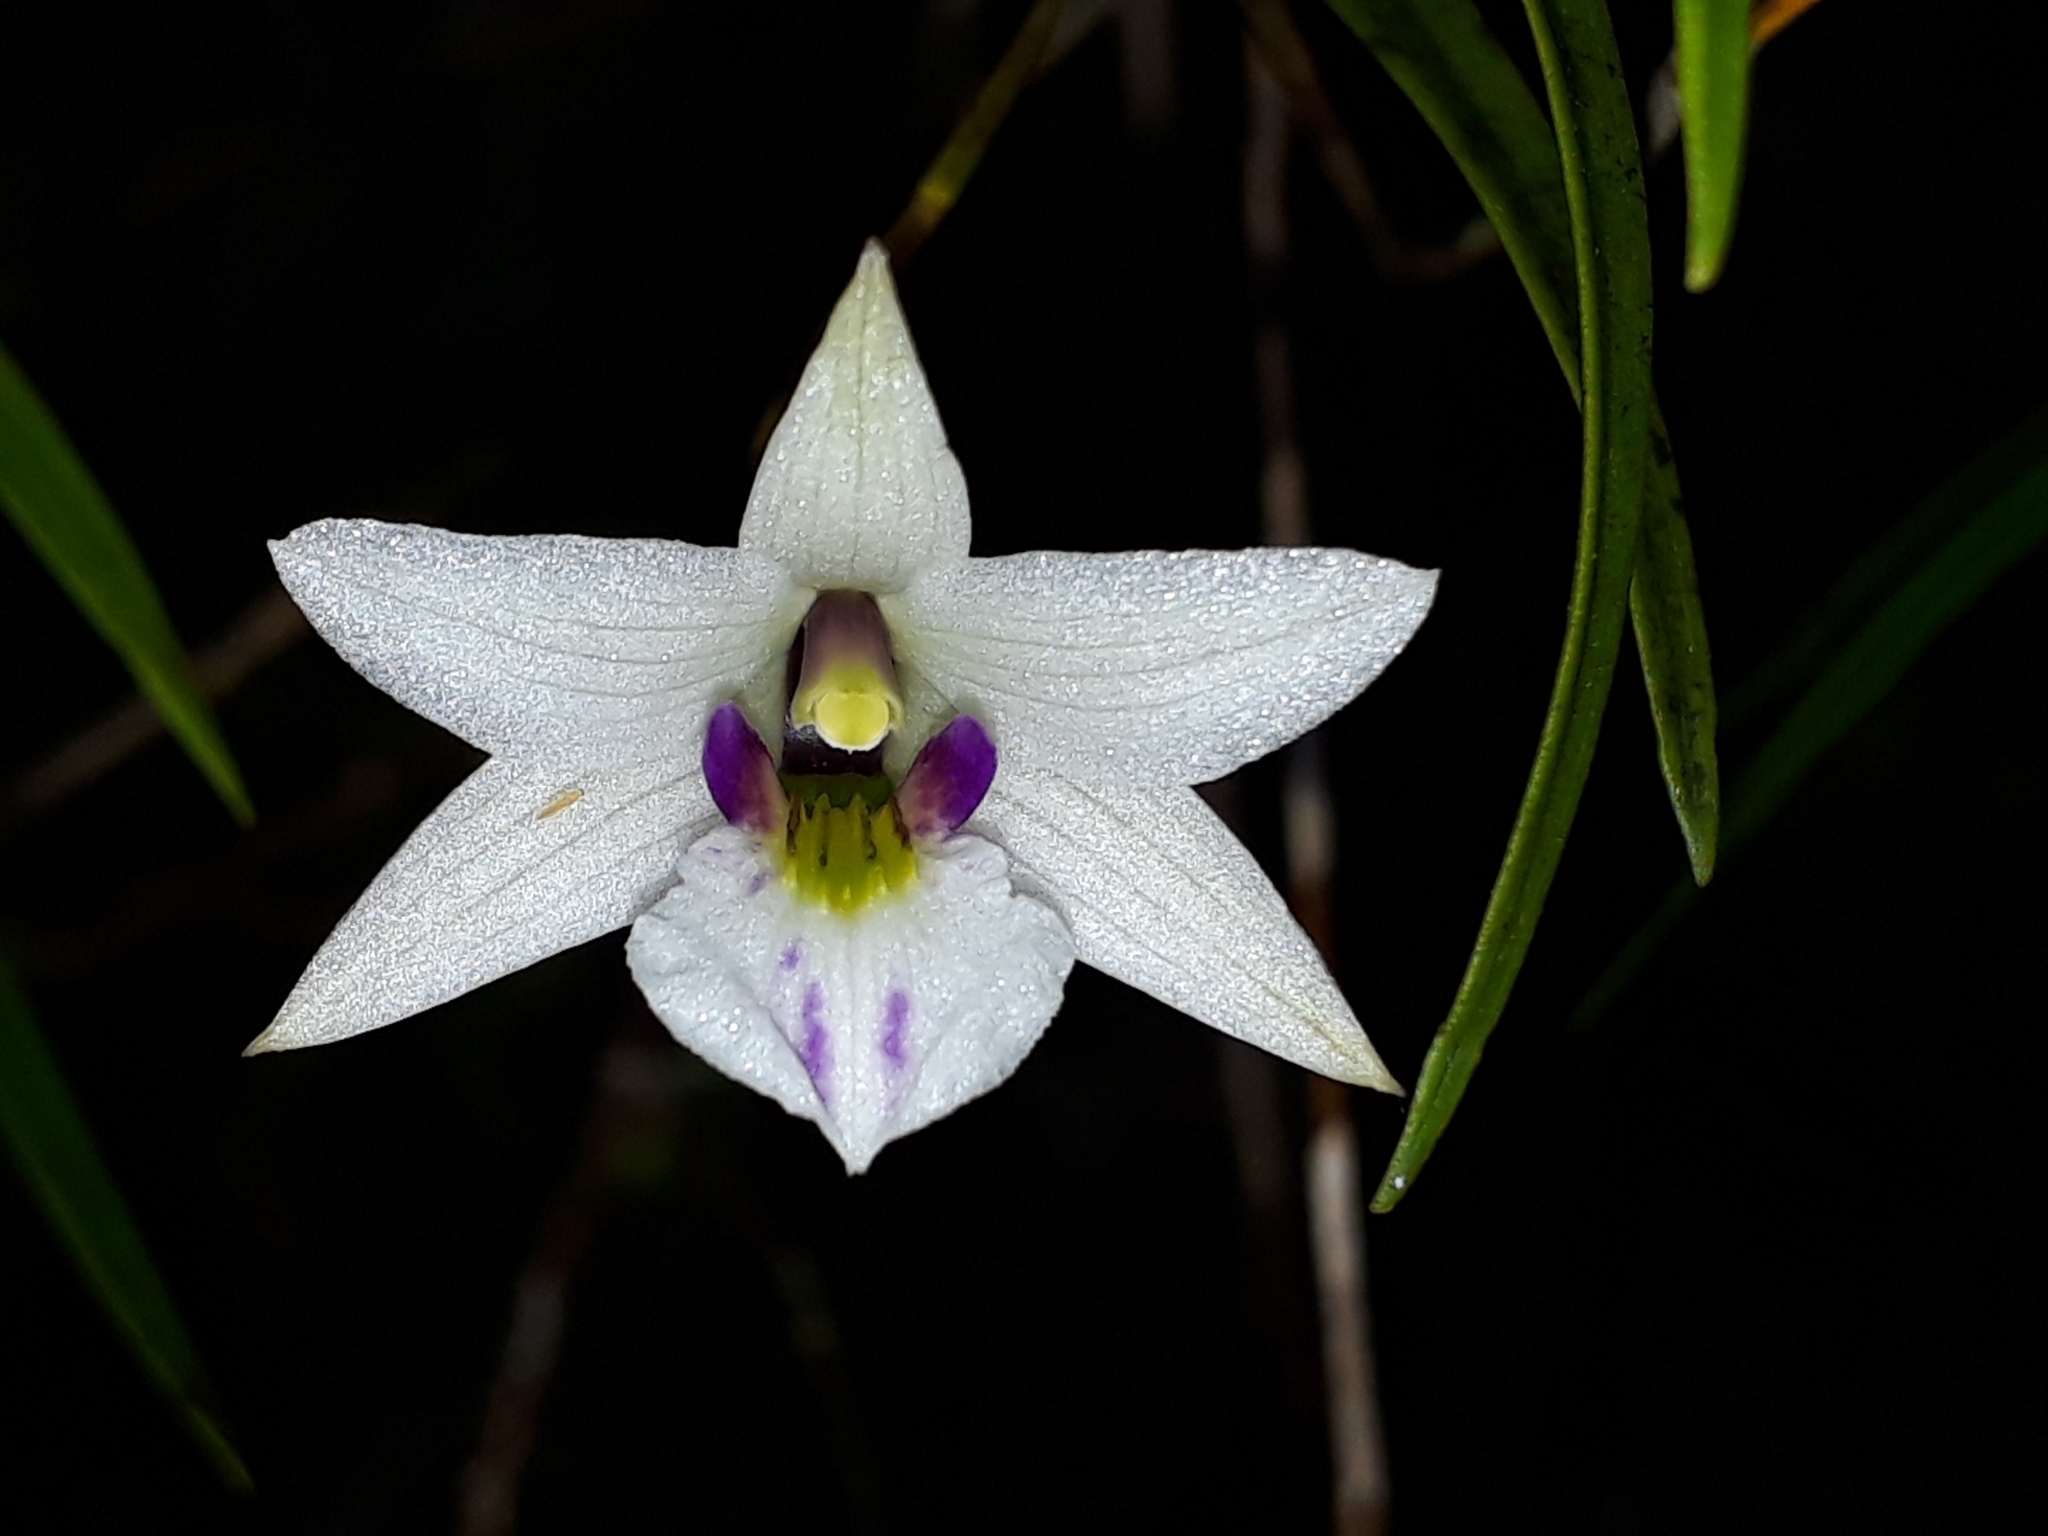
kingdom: Plantae
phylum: Tracheophyta
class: Liliopsida
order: Asparagales
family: Orchidaceae
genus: Dendrobium
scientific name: Dendrobium cunninghamii
